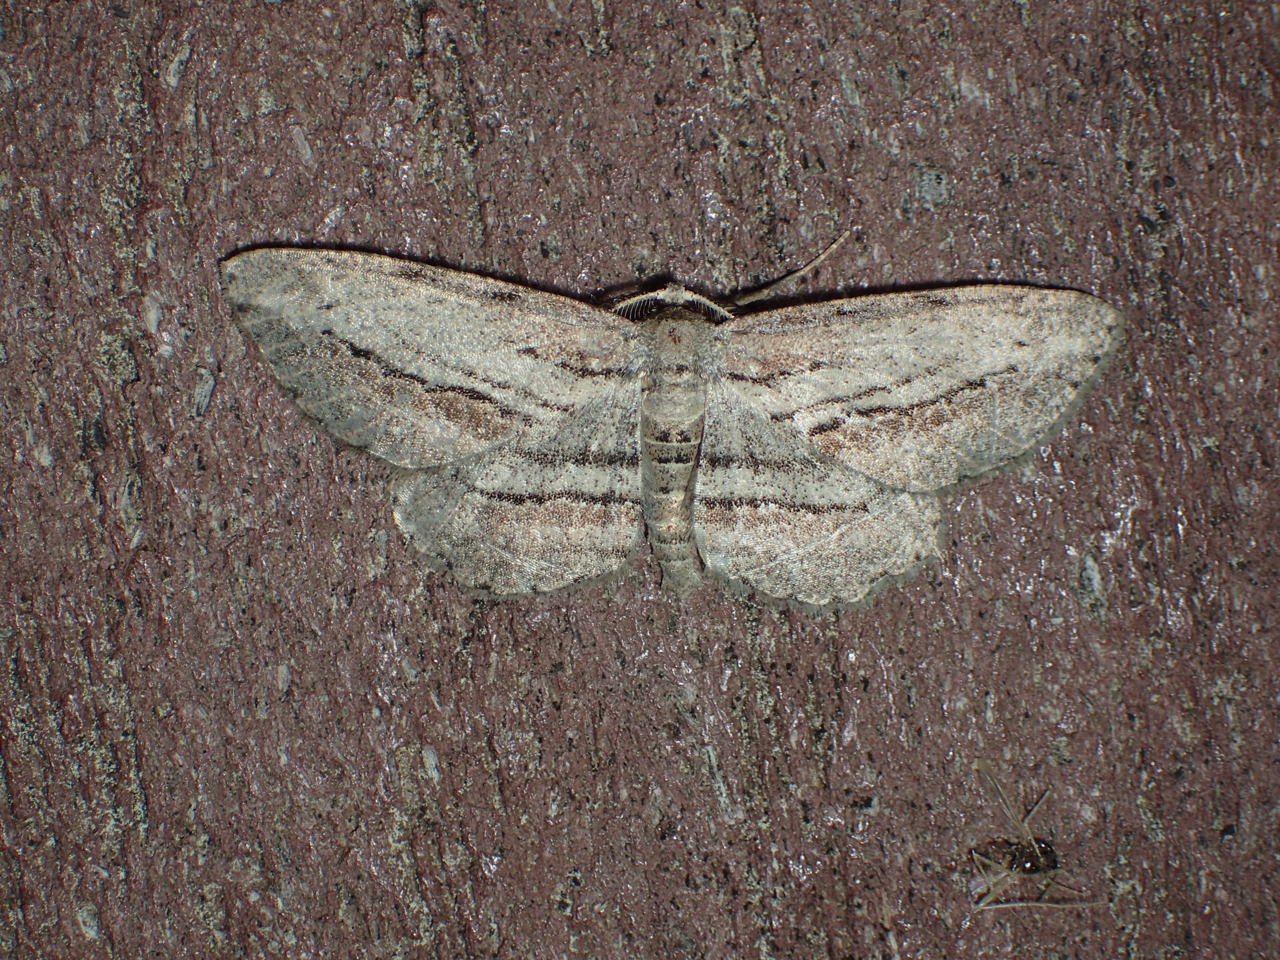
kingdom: Animalia
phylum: Arthropoda
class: Insecta
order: Lepidoptera
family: Geometridae
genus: Glena
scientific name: Glena plumosaria
